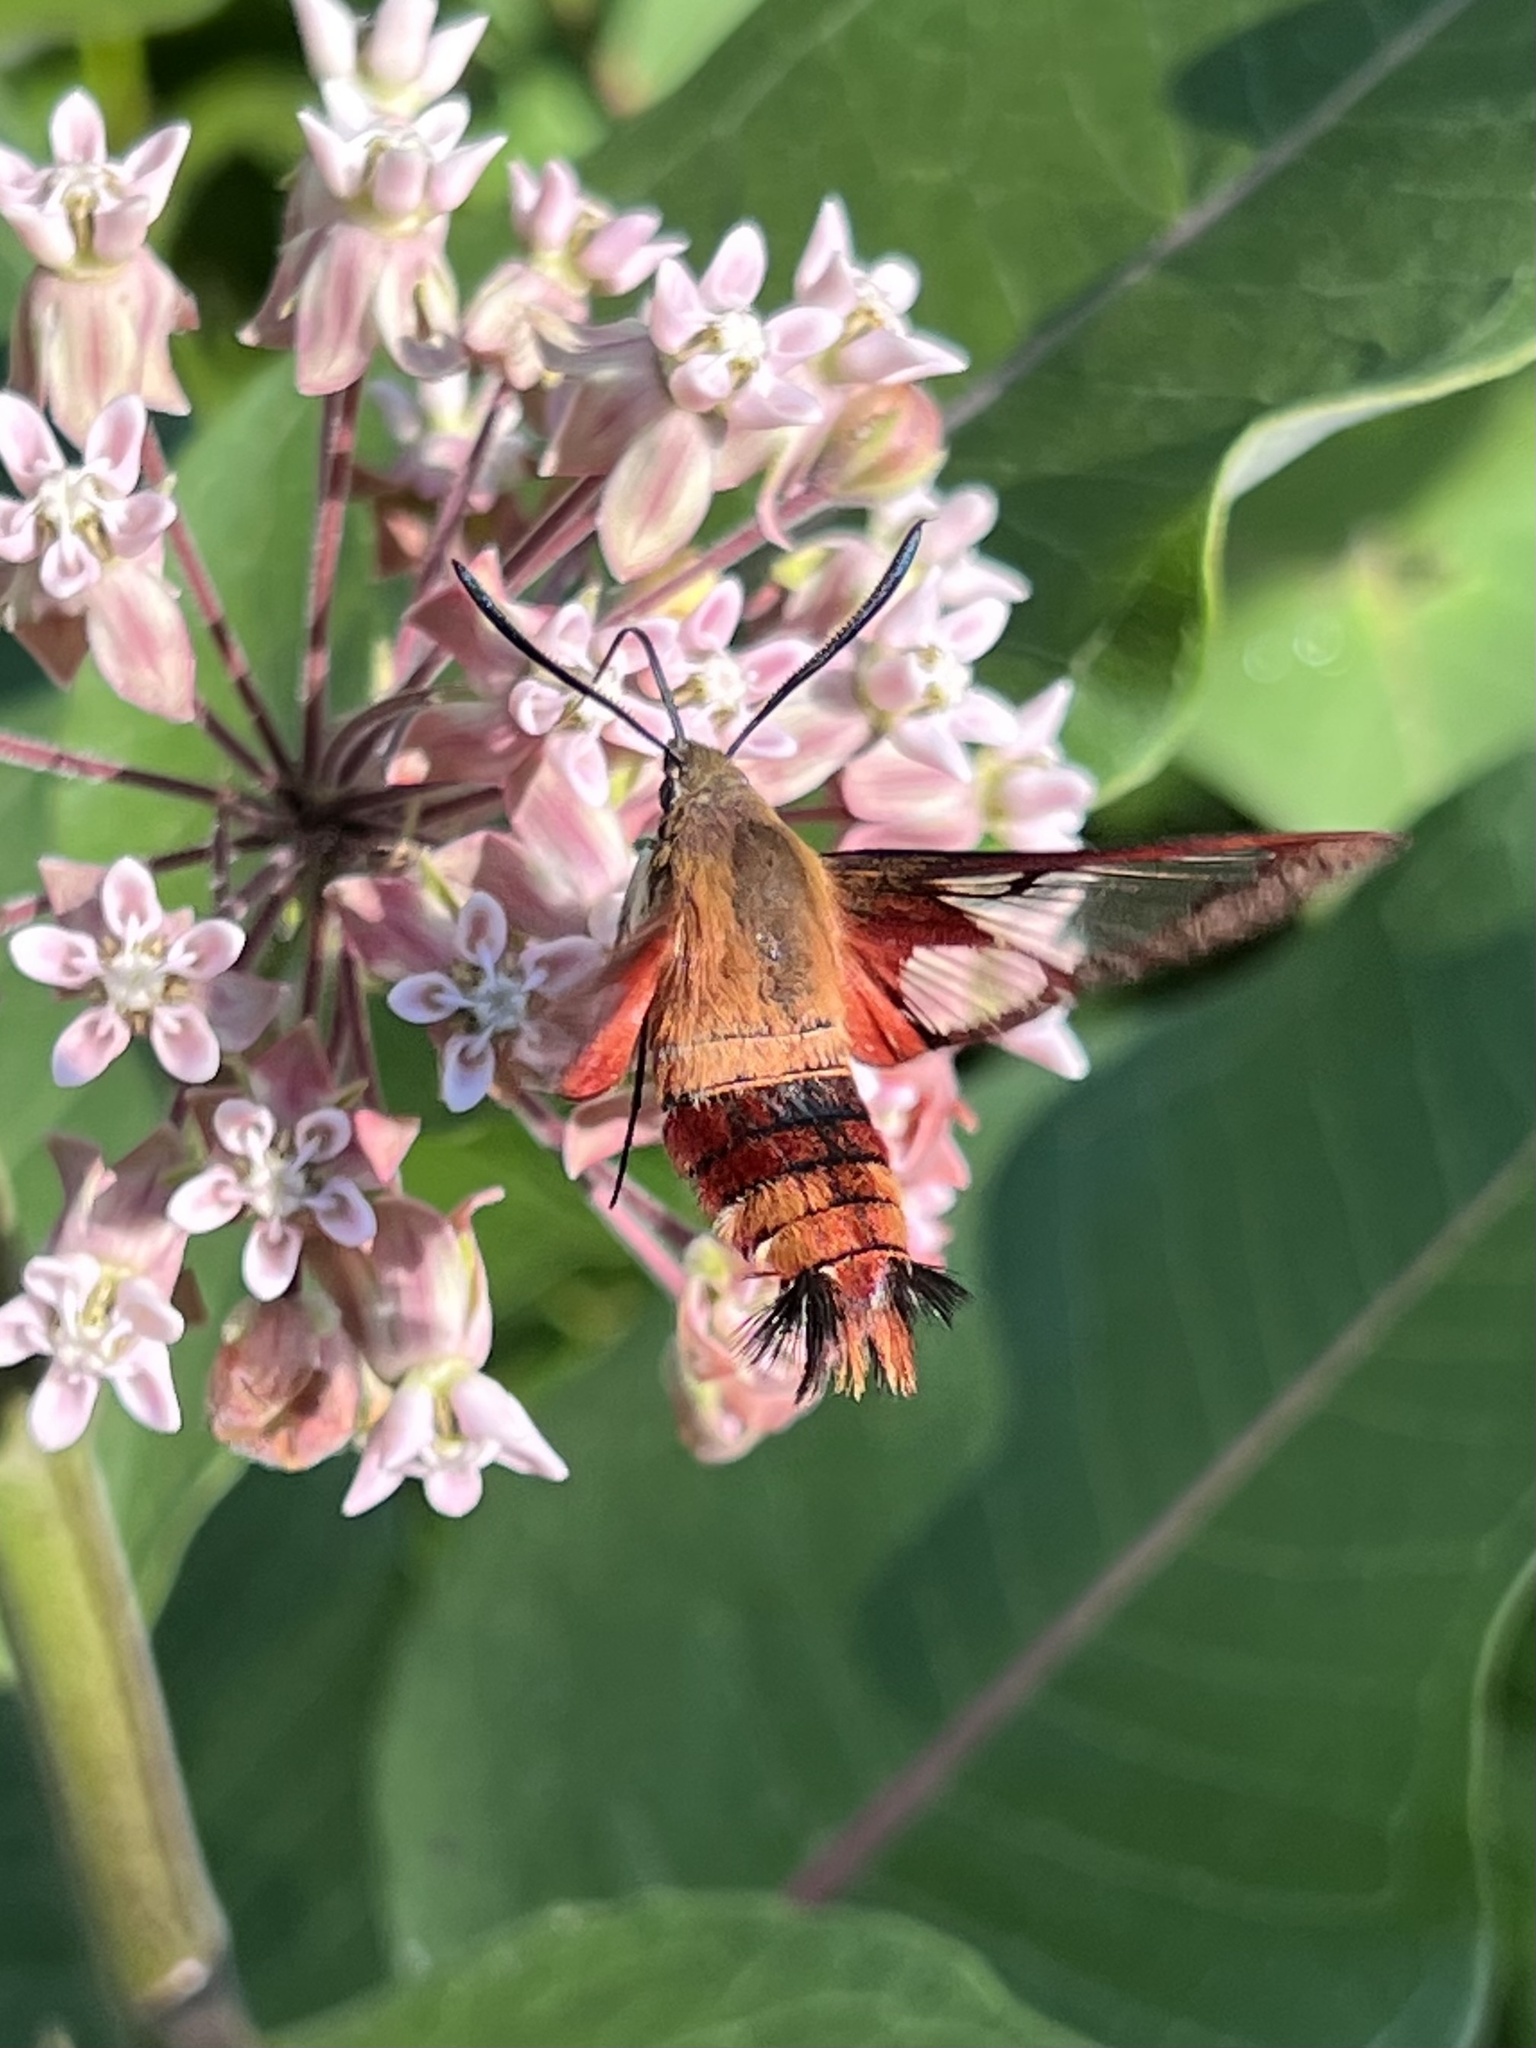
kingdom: Animalia
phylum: Arthropoda
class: Insecta
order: Lepidoptera
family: Sphingidae
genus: Hemaris
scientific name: Hemaris thysbe
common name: Common clear-wing
